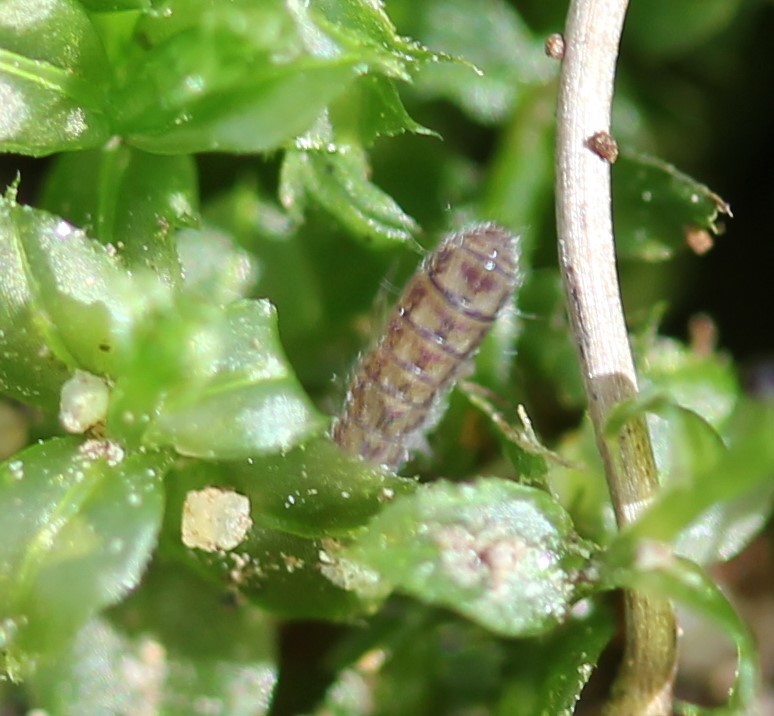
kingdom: Animalia
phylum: Arthropoda
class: Collembola
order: Entomobryomorpha
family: Isotomidae
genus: Isotoma
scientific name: Isotoma delta
